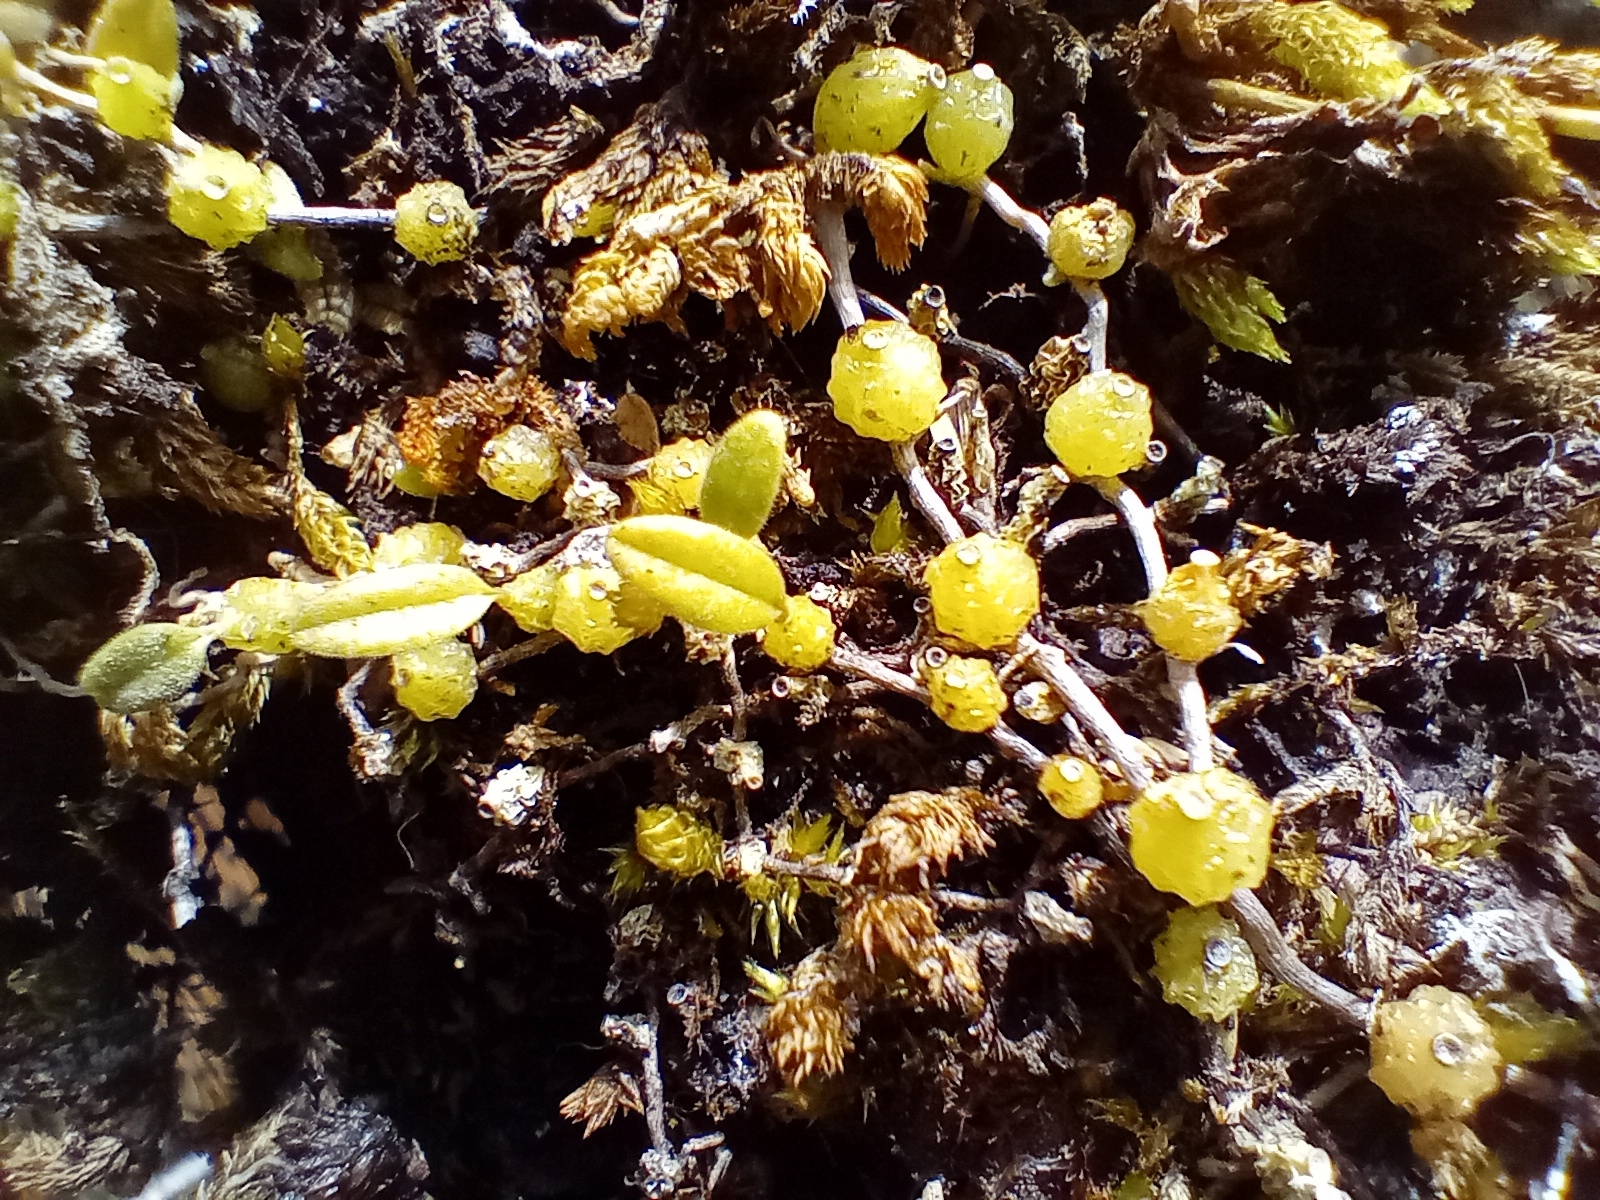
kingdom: Plantae
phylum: Tracheophyta
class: Liliopsida
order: Asparagales
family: Orchidaceae
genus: Bulbophyllum
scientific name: Bulbophyllum pygmaeum
